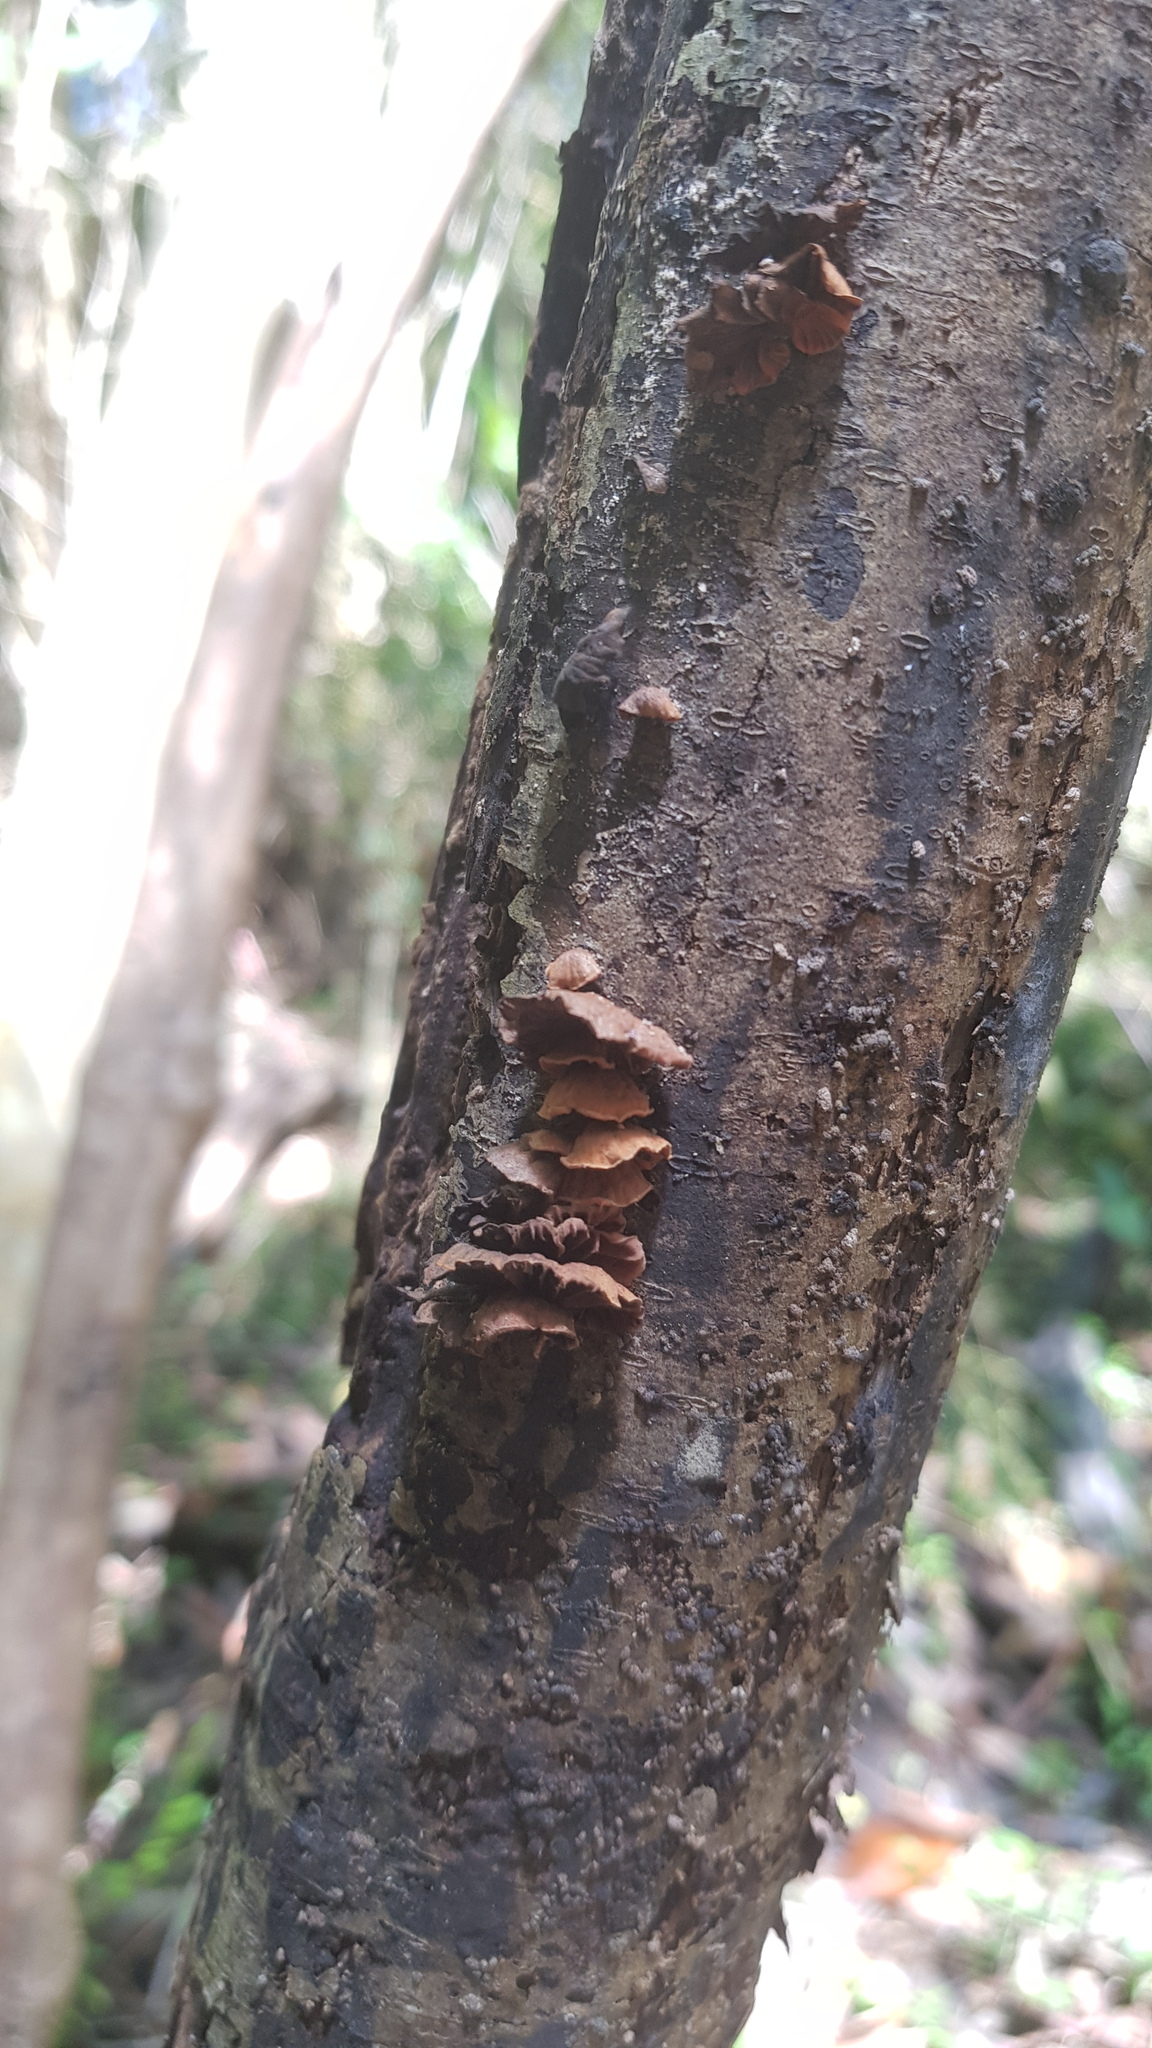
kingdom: Fungi
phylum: Basidiomycota
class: Agaricomycetes
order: Agaricales
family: Omphalotaceae
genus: Anthracophyllum
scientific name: Anthracophyllum archeri
